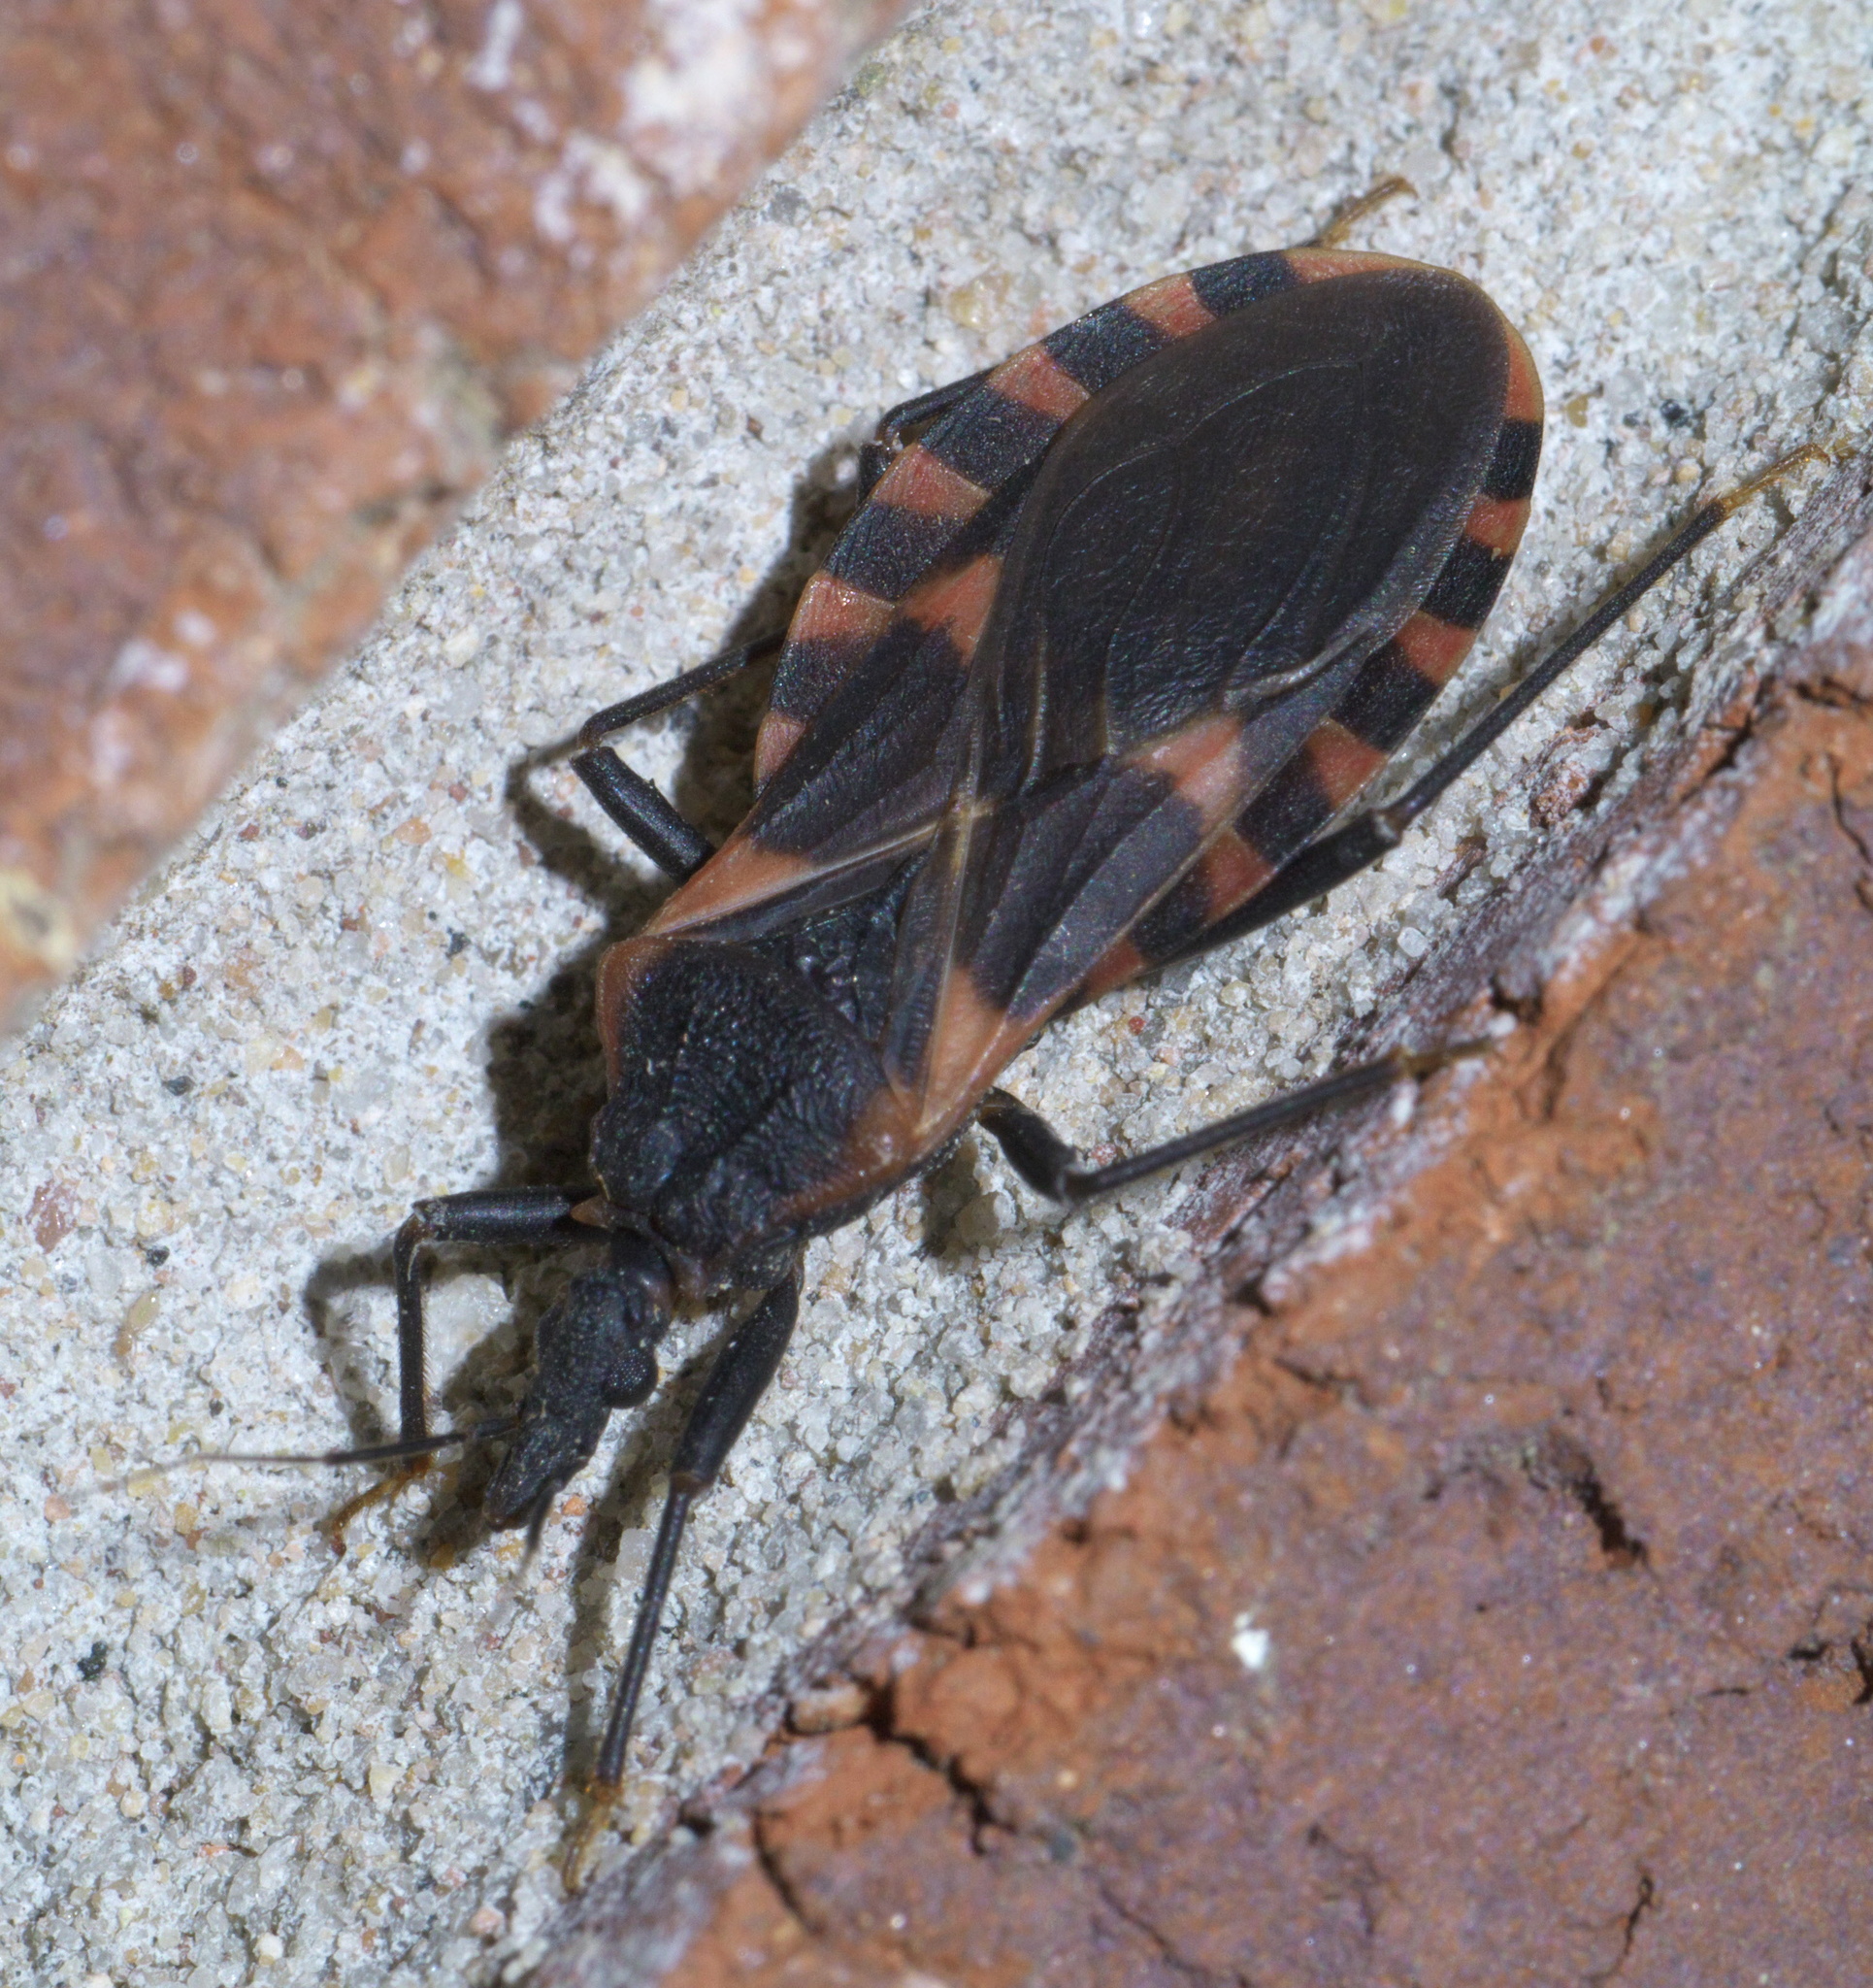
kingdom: Animalia
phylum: Arthropoda
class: Insecta
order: Hemiptera
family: Reduviidae
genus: Triatoma
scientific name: Triatoma sanguisuga
